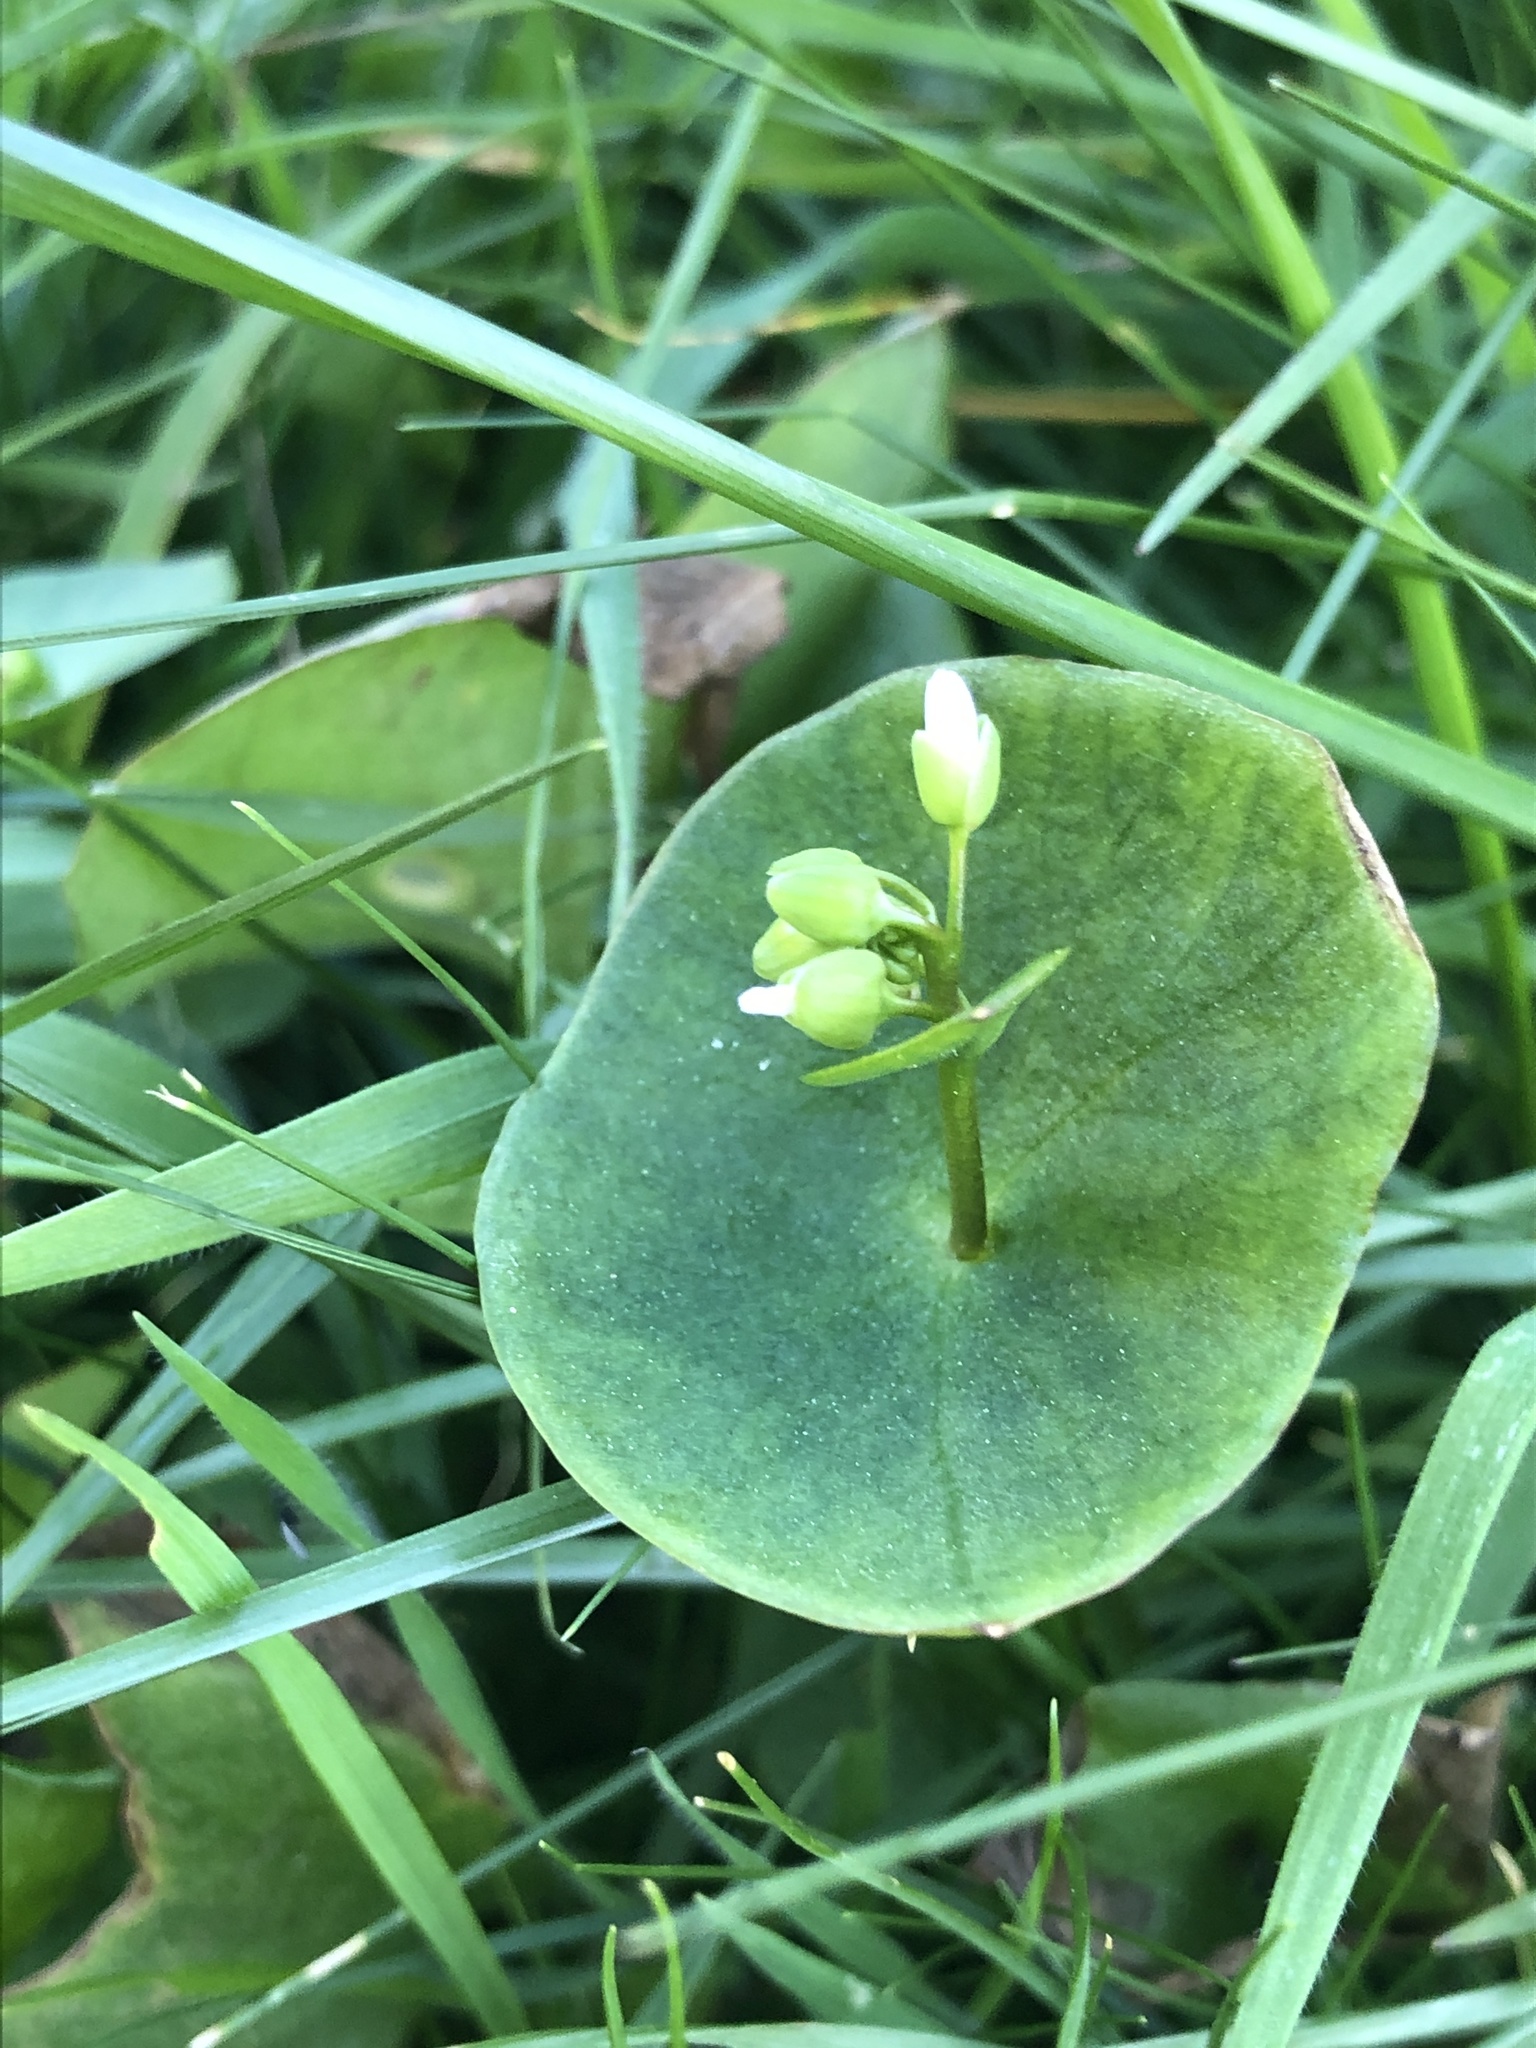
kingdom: Plantae
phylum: Tracheophyta
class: Magnoliopsida
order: Caryophyllales
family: Montiaceae
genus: Claytonia
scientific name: Claytonia perfoliata
